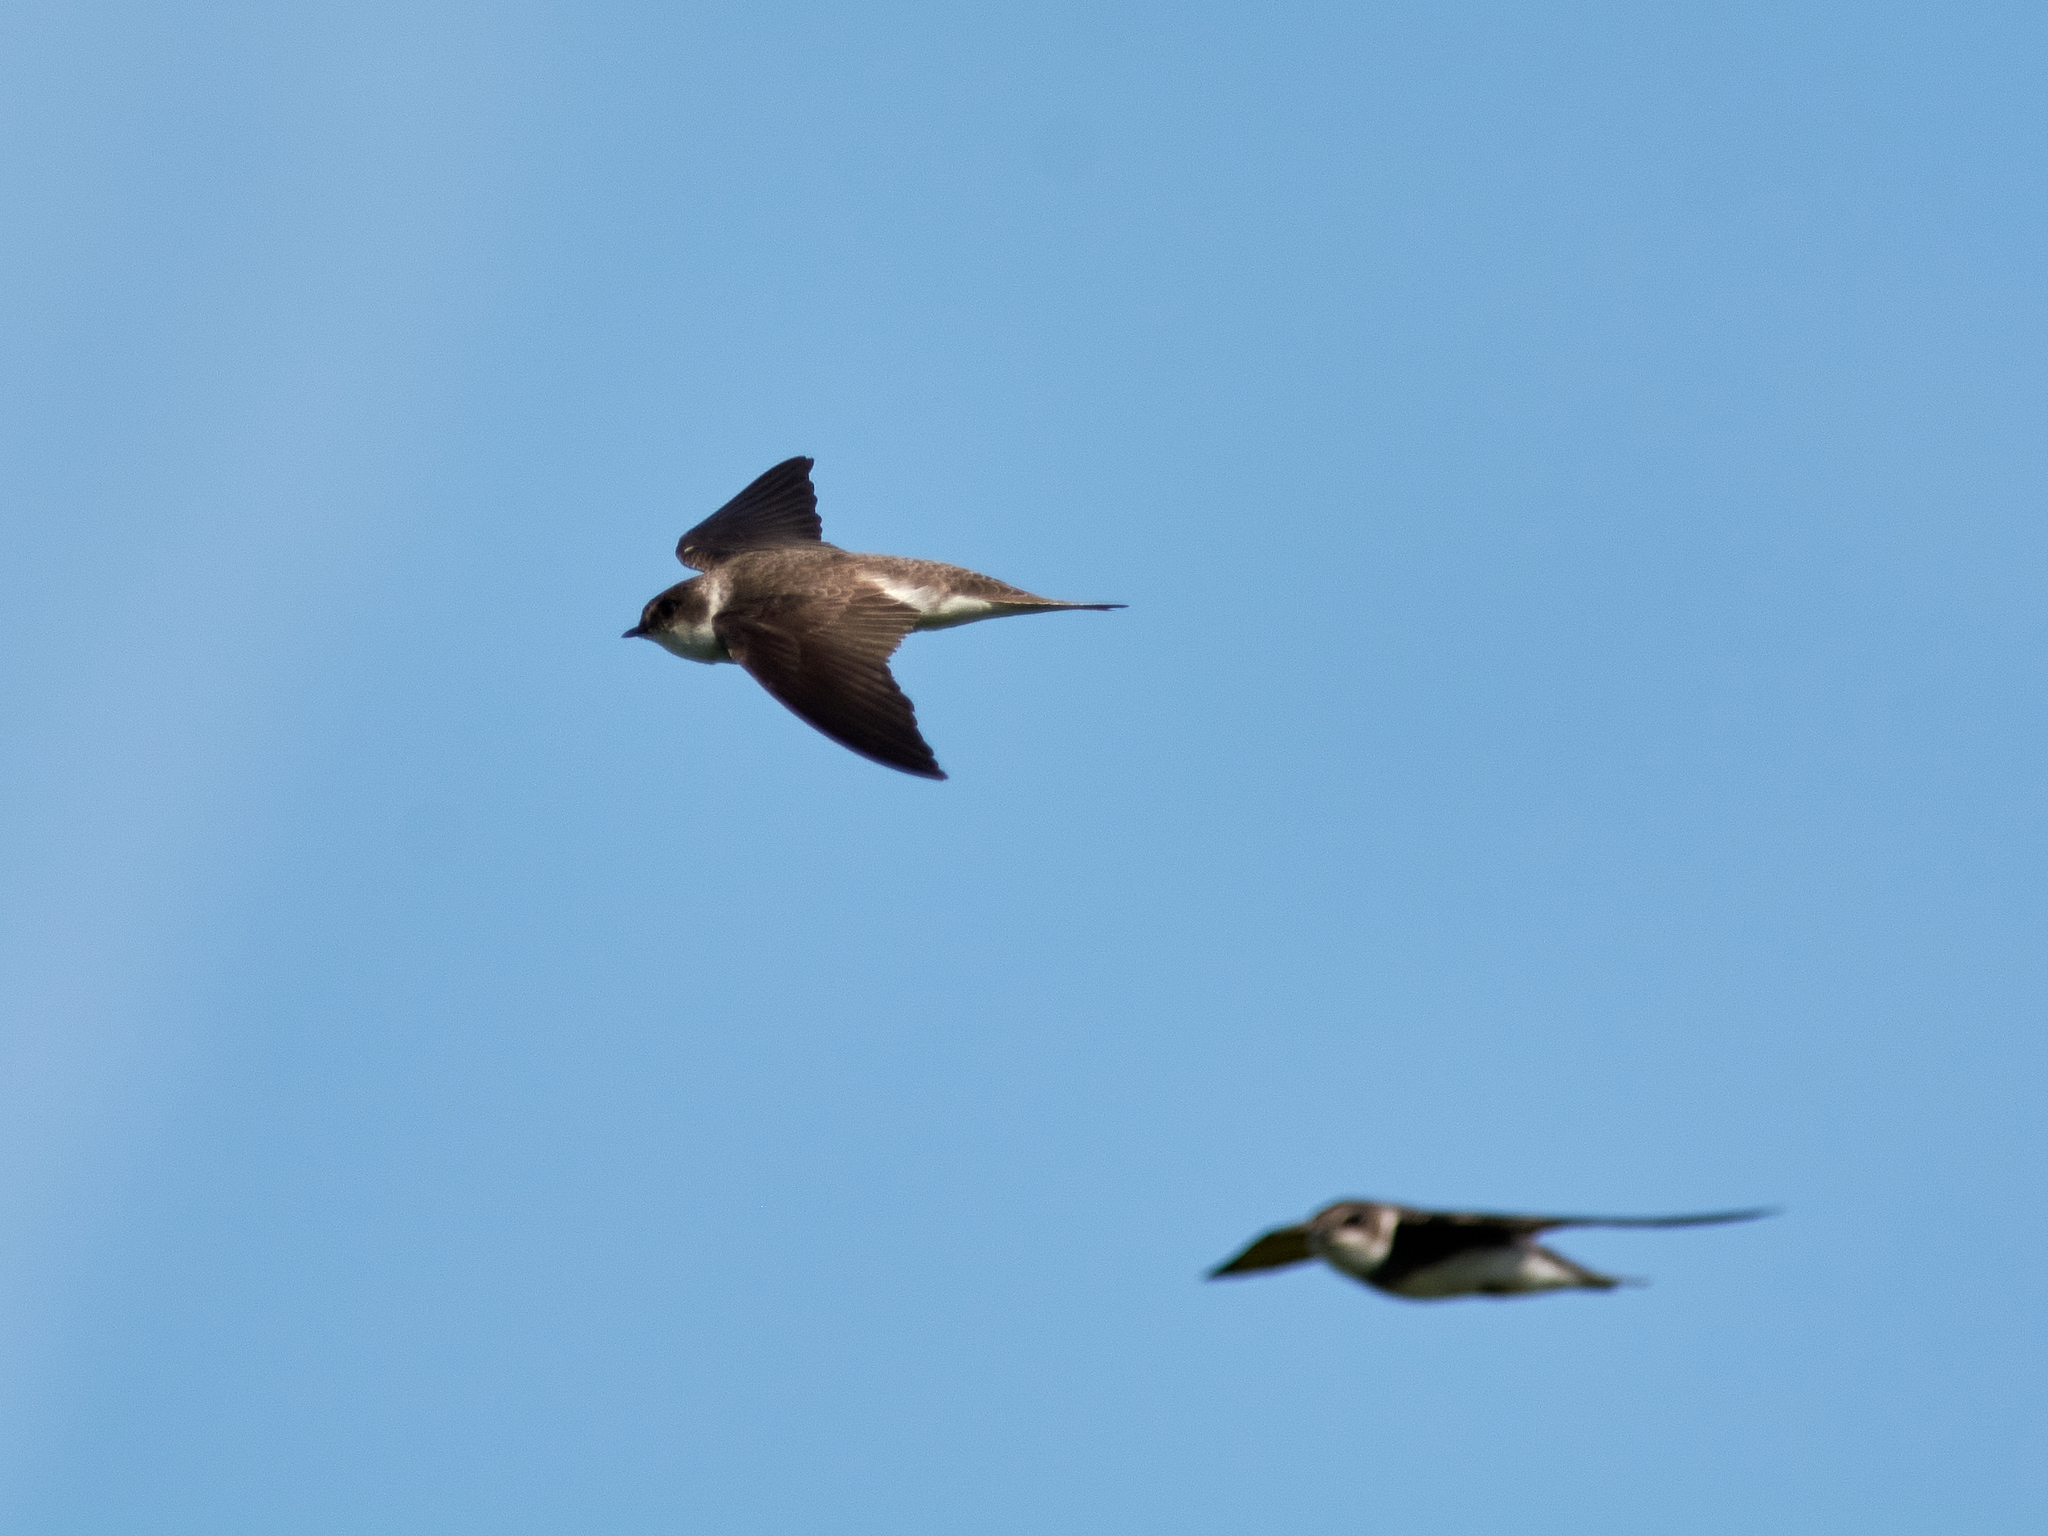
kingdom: Animalia
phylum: Chordata
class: Aves
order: Passeriformes
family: Hirundinidae
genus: Riparia
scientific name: Riparia riparia
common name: Sand martin
